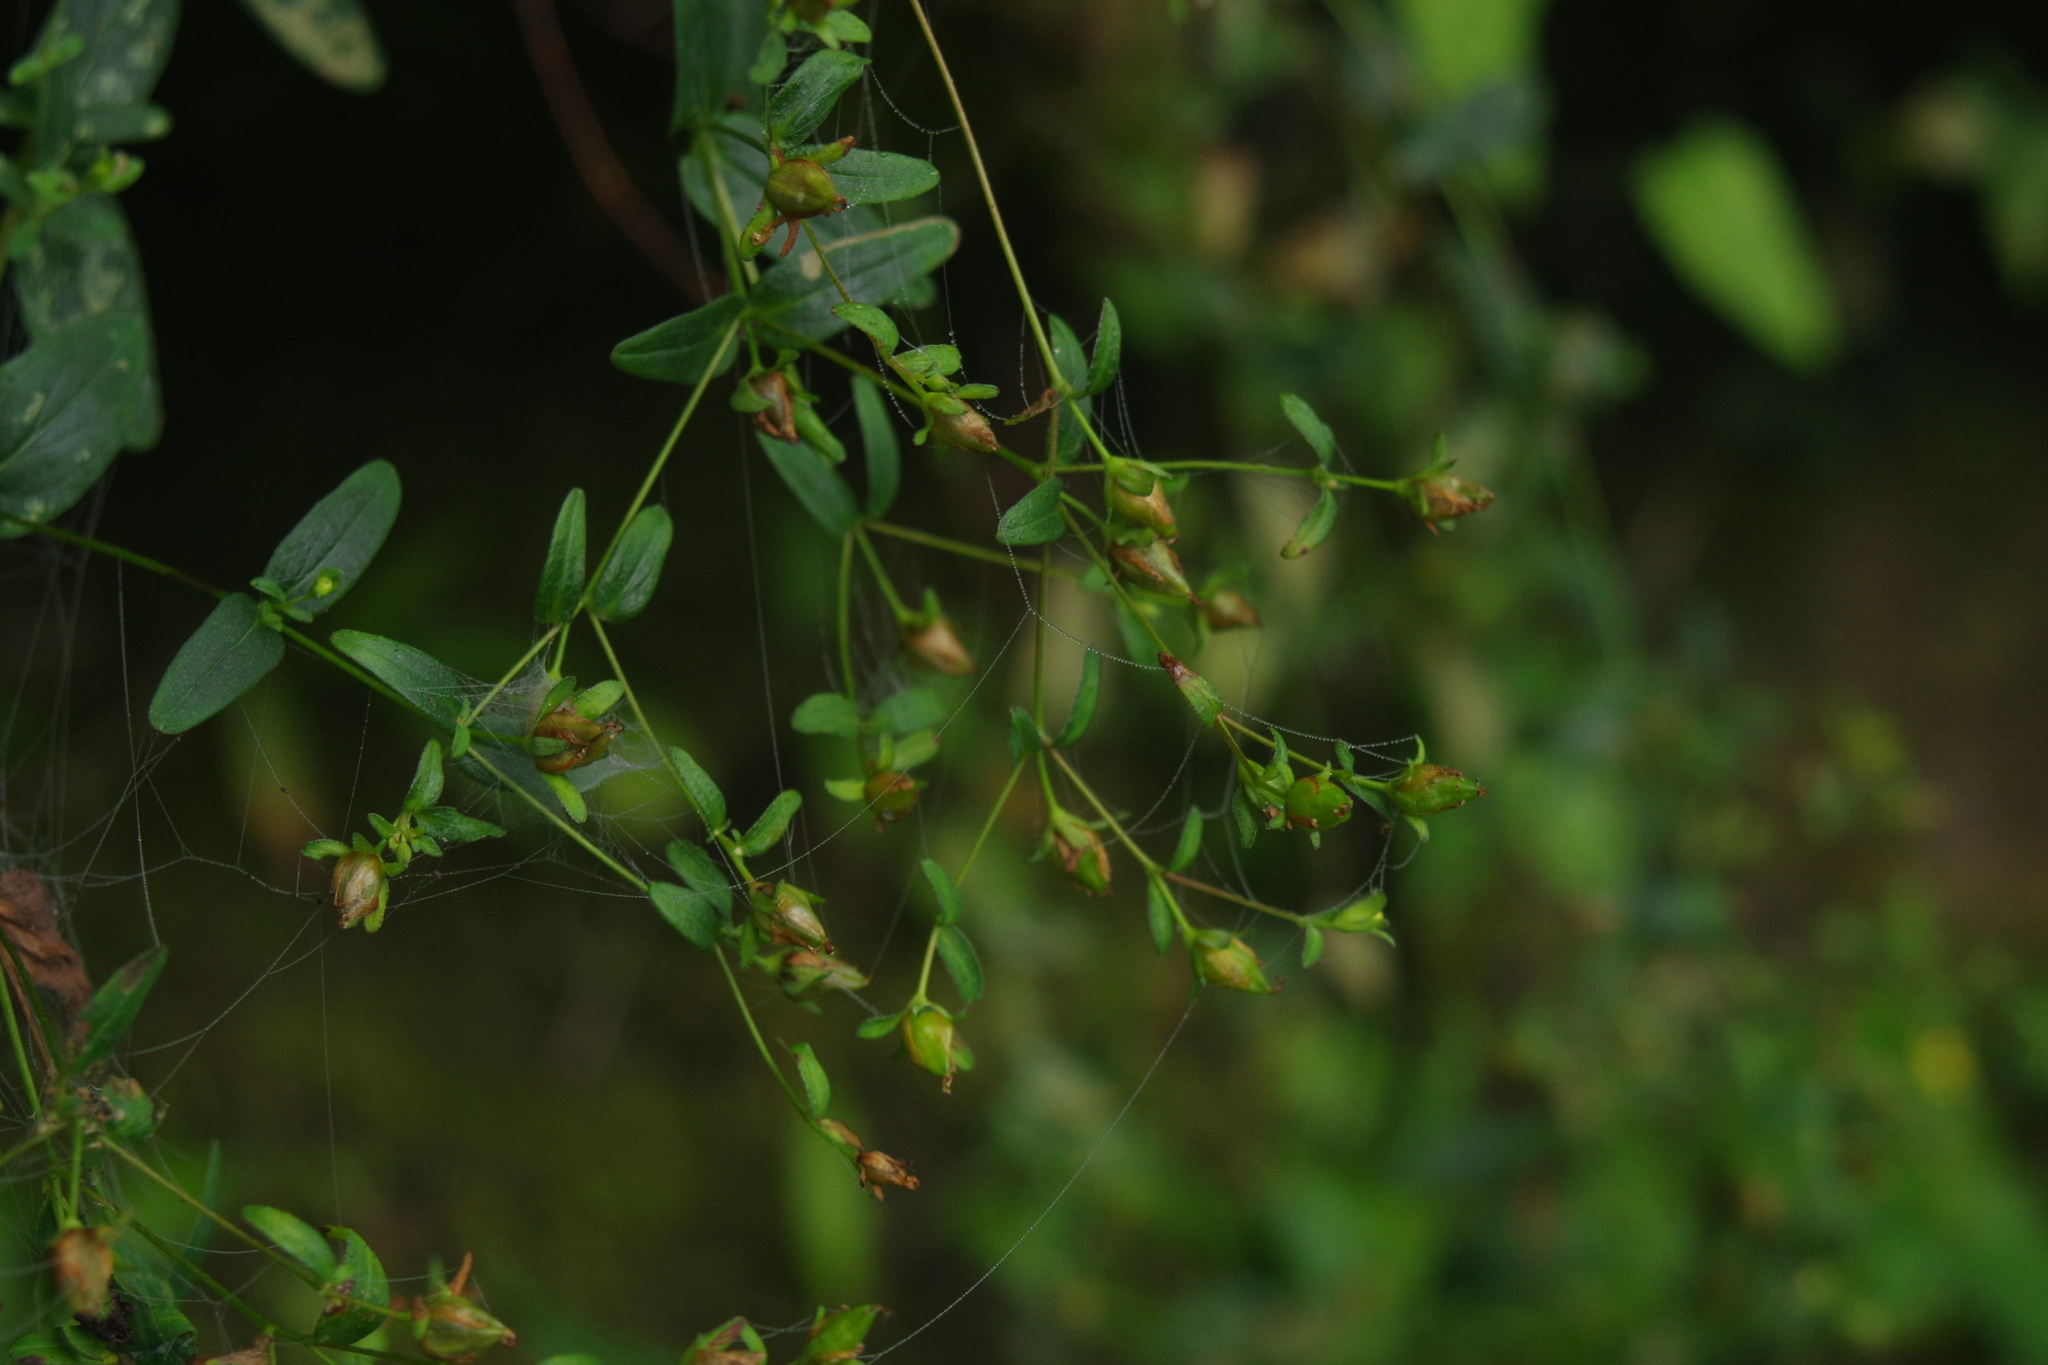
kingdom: Plantae
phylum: Tracheophyta
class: Magnoliopsida
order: Malpighiales
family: Hypericaceae
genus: Hypericum
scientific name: Hypericum taihezanense
